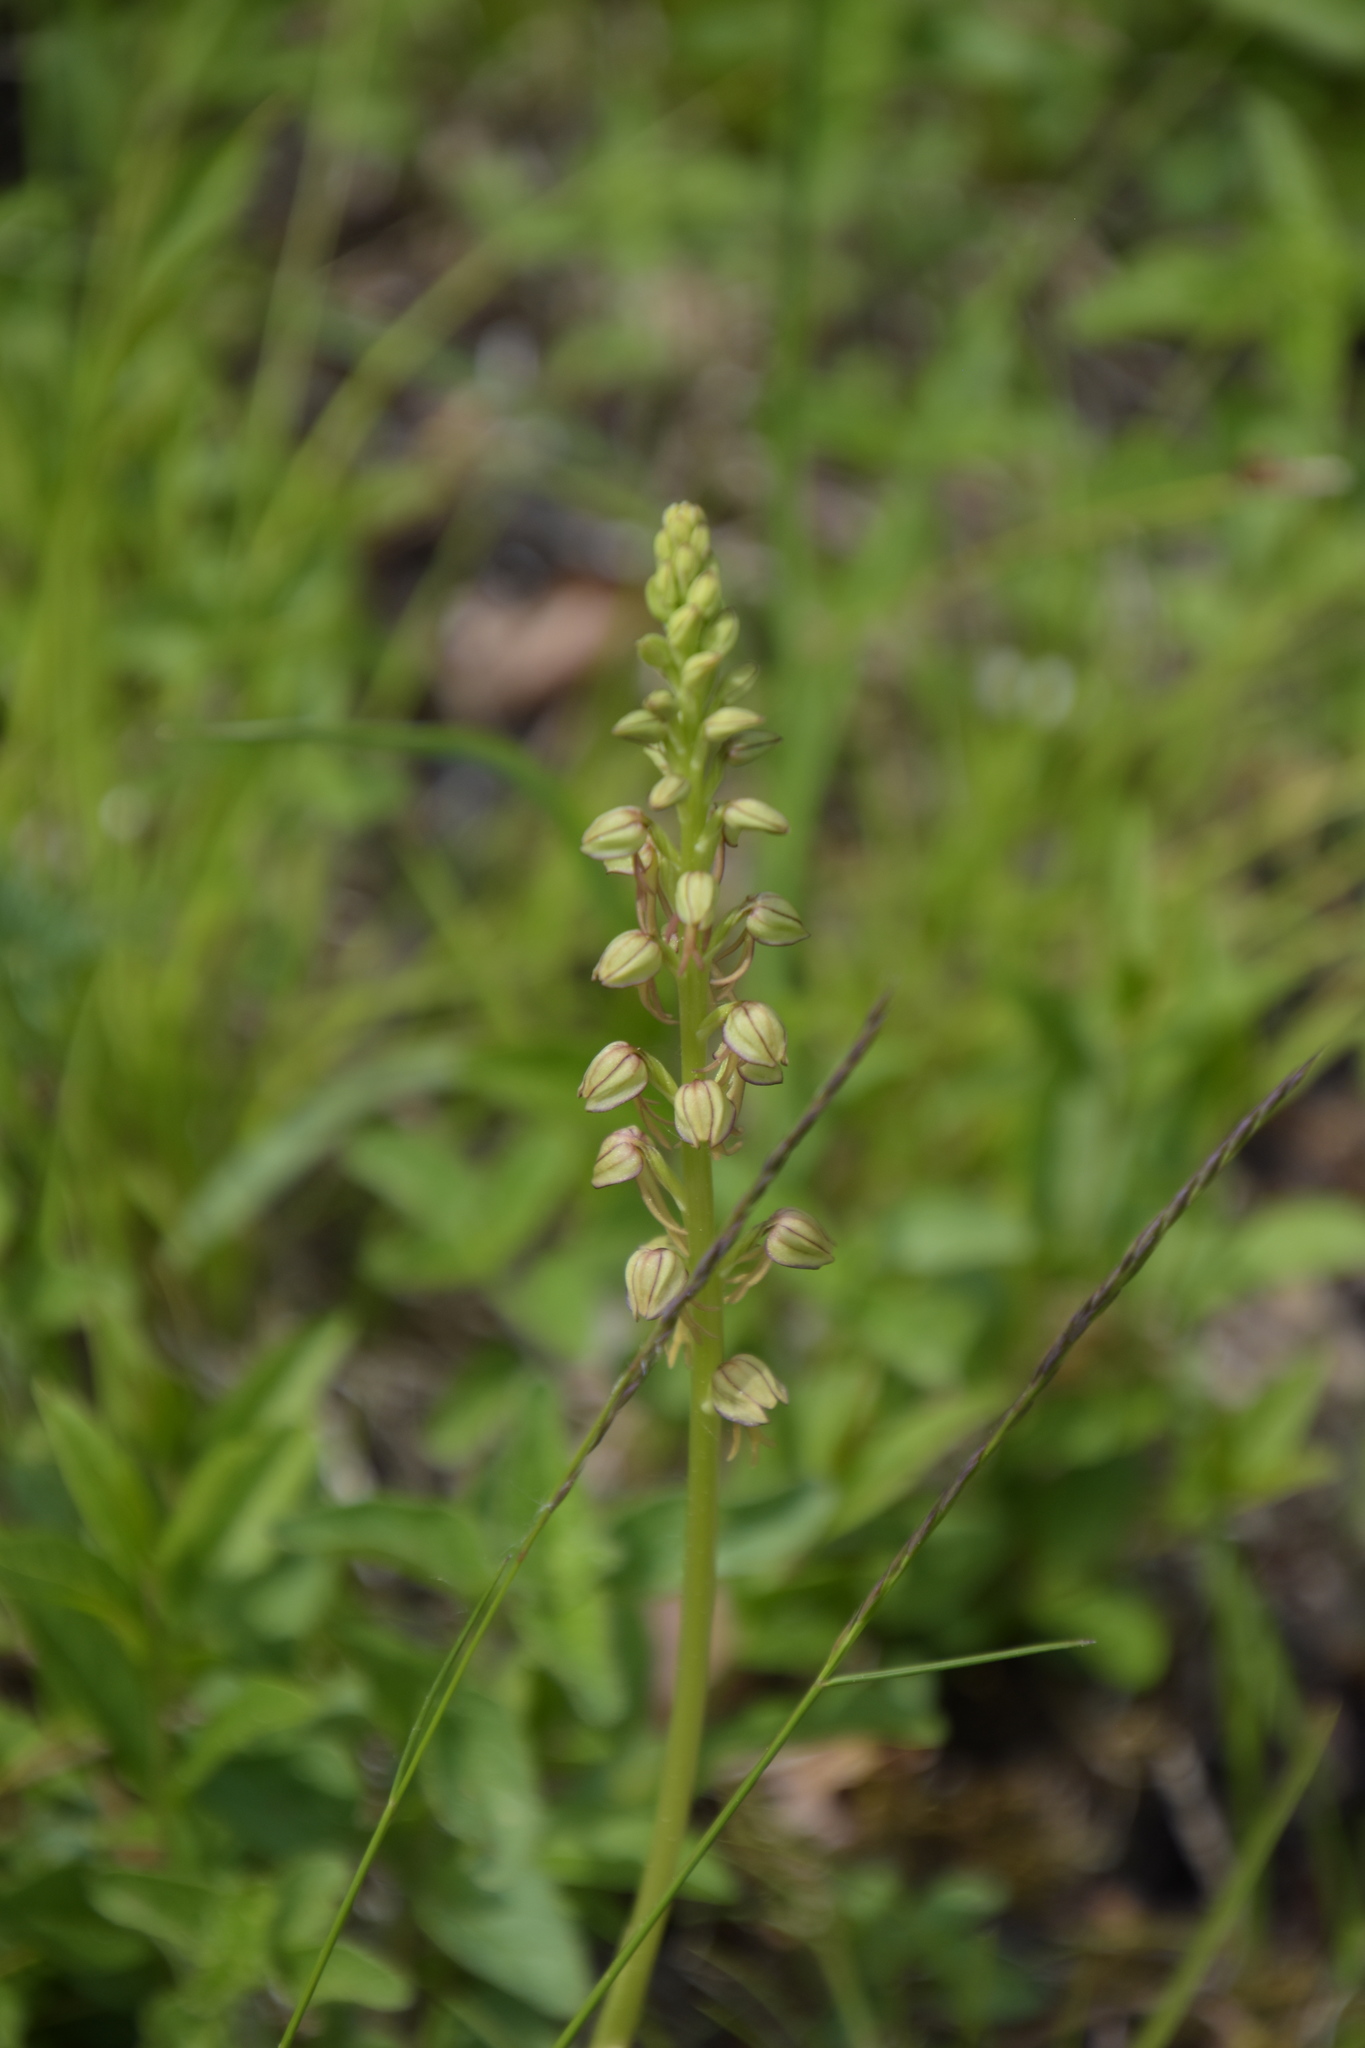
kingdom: Plantae
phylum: Tracheophyta
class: Liliopsida
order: Asparagales
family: Orchidaceae
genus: Orchis
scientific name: Orchis anthropophora
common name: Man orchid
